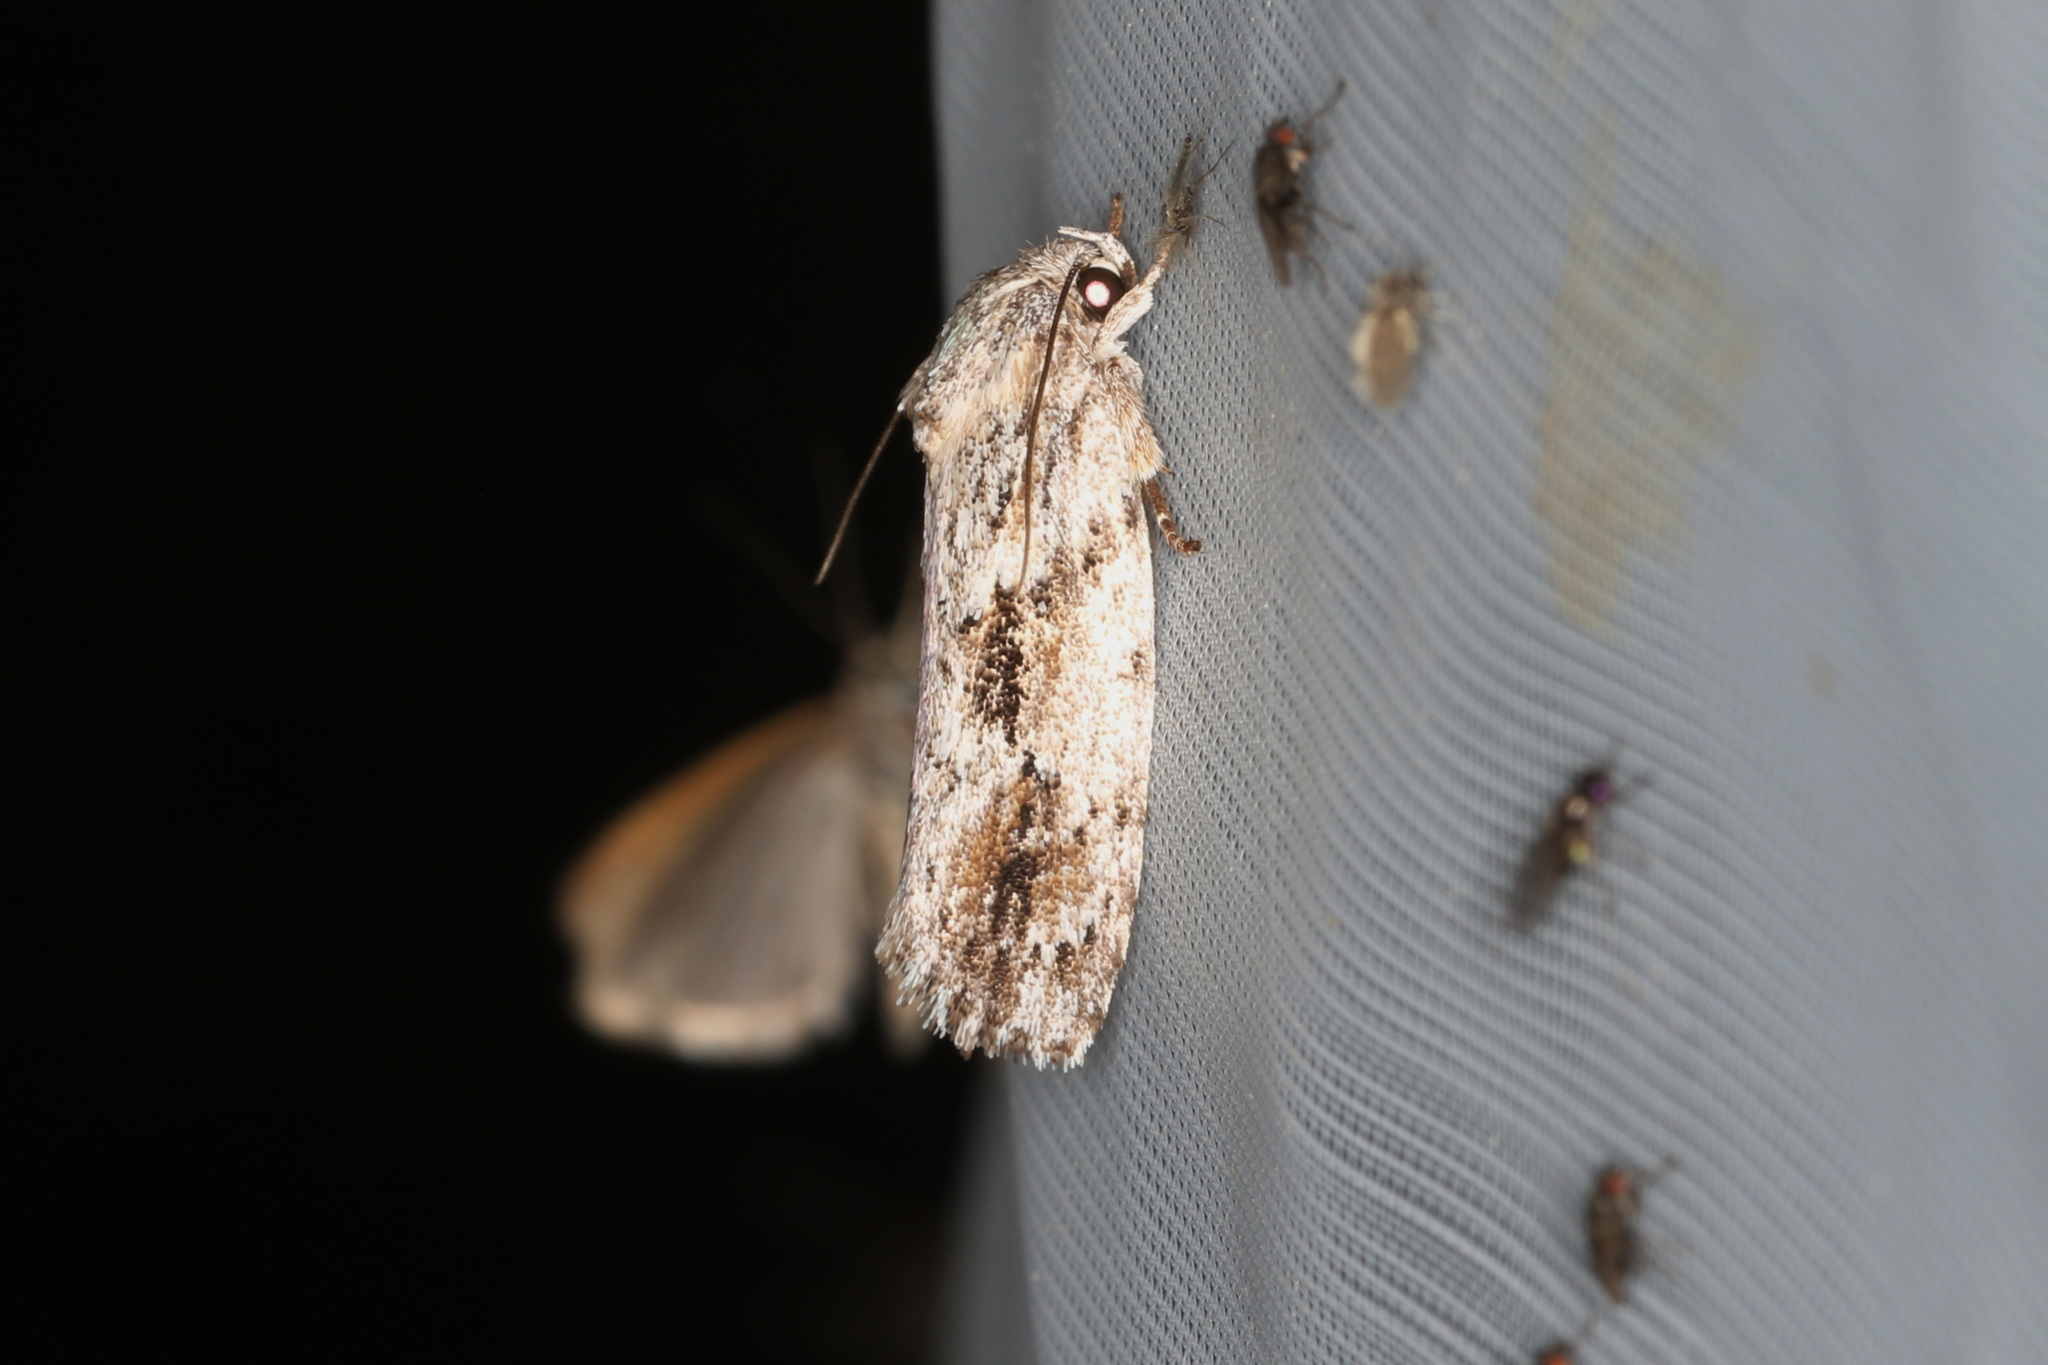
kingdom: Animalia
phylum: Arthropoda
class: Insecta
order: Lepidoptera
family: Depressariidae
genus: Agriophara
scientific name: Agriophara confertella
